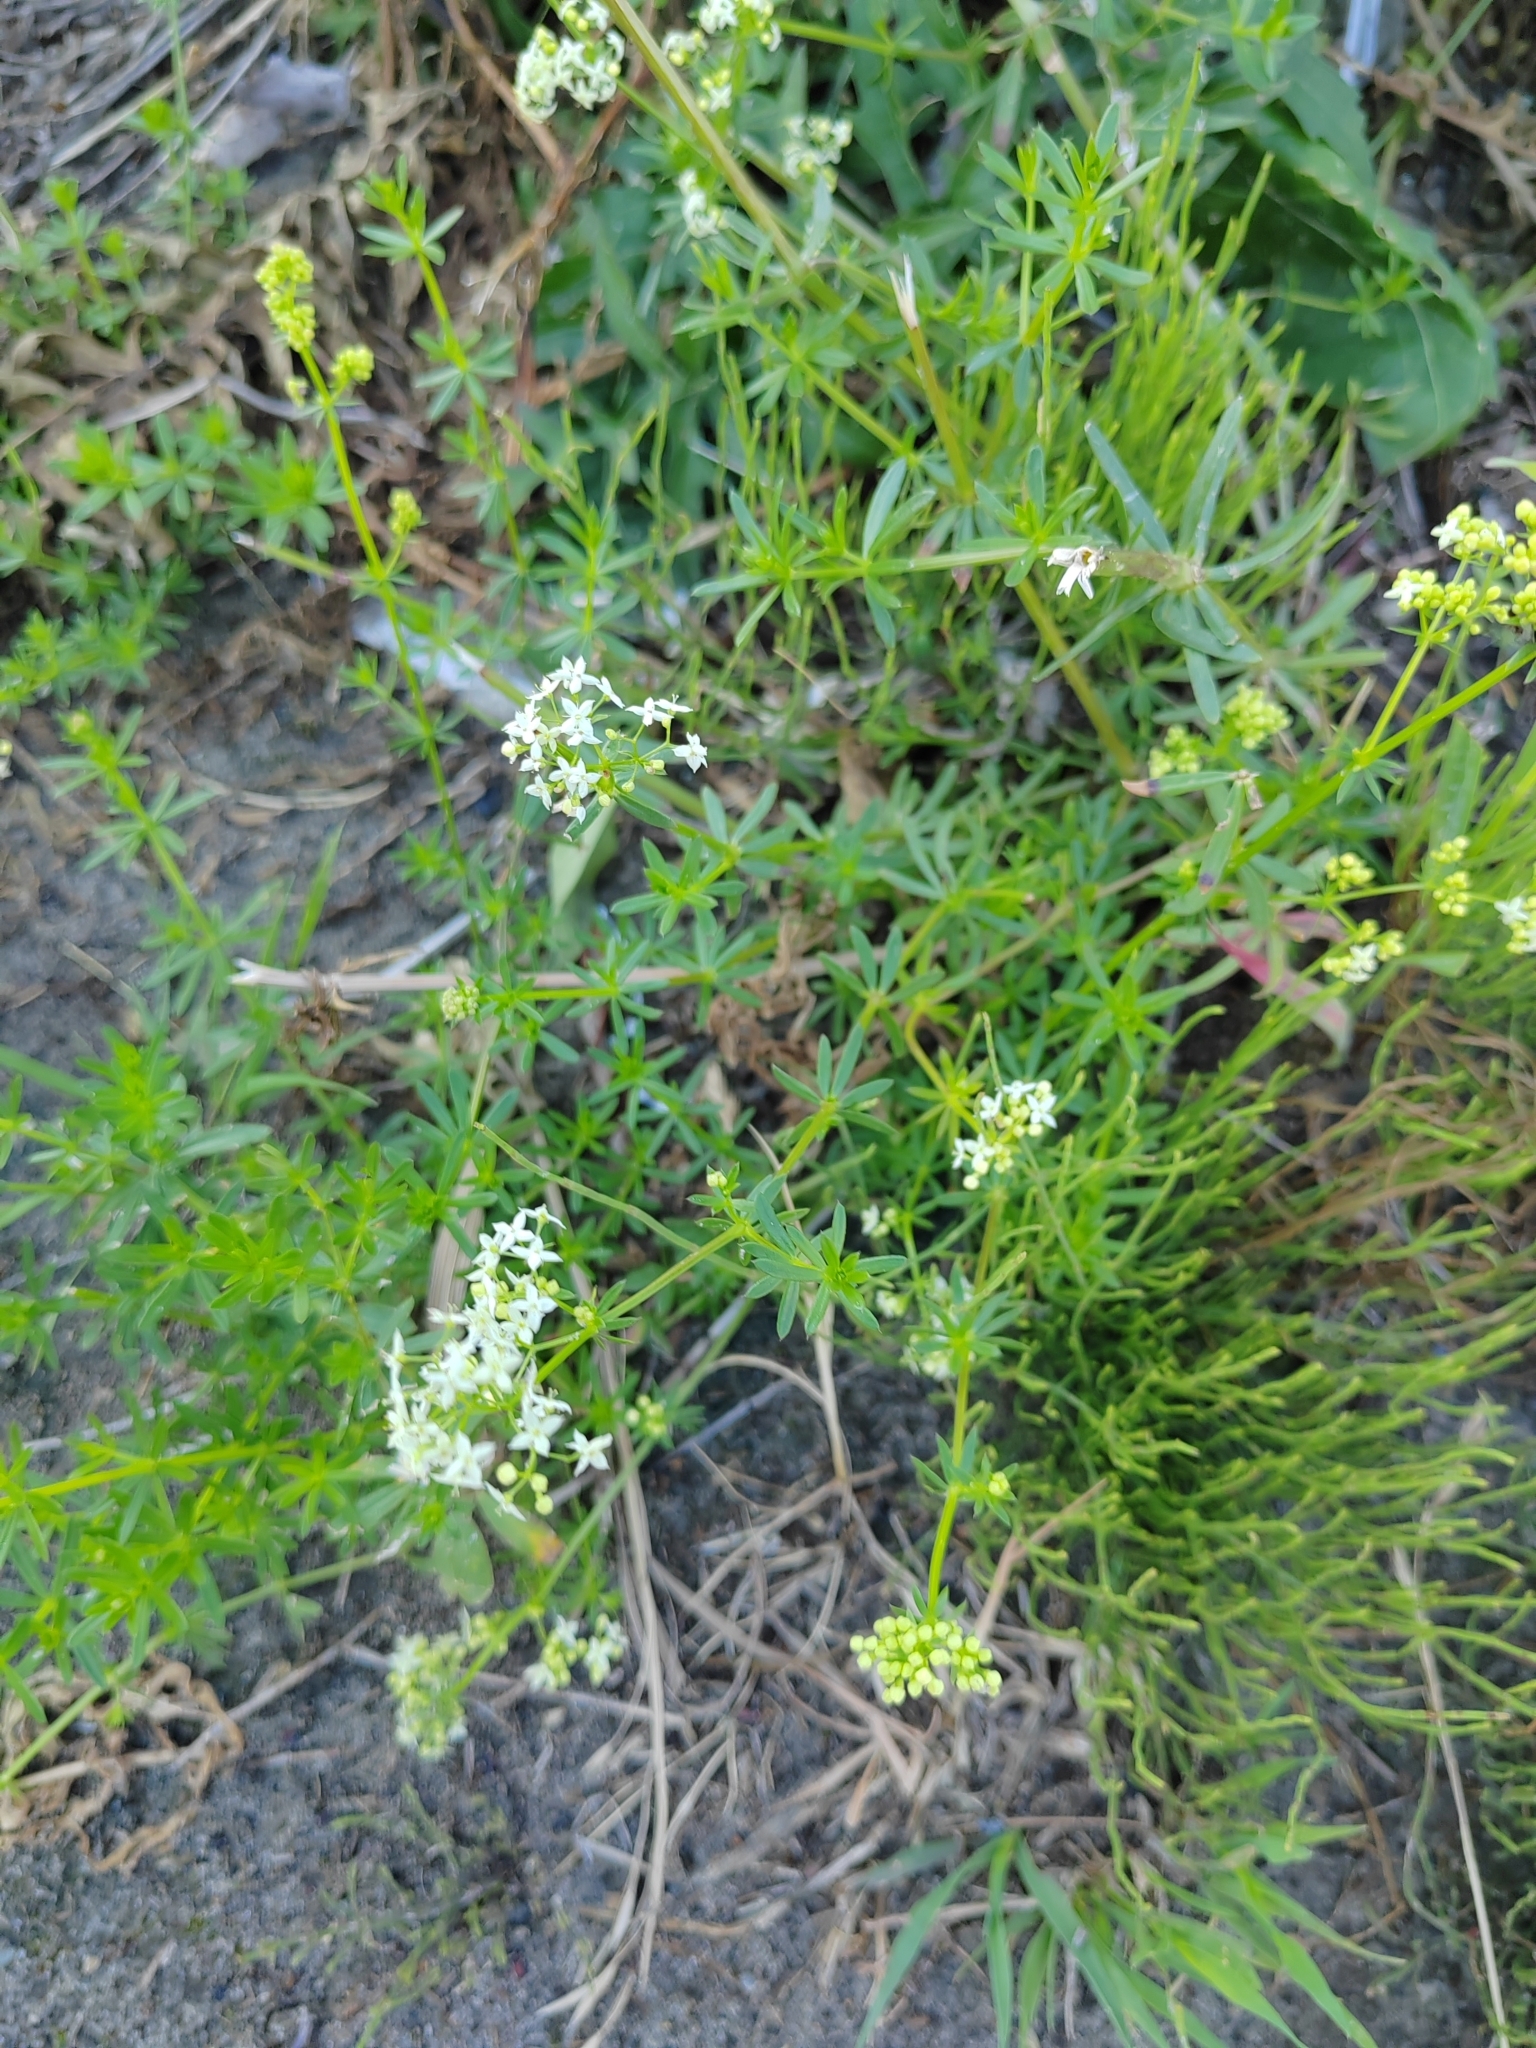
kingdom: Plantae
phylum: Tracheophyta
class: Magnoliopsida
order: Gentianales
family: Rubiaceae
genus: Galium
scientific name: Galium mollugo
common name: Hedge bedstraw
